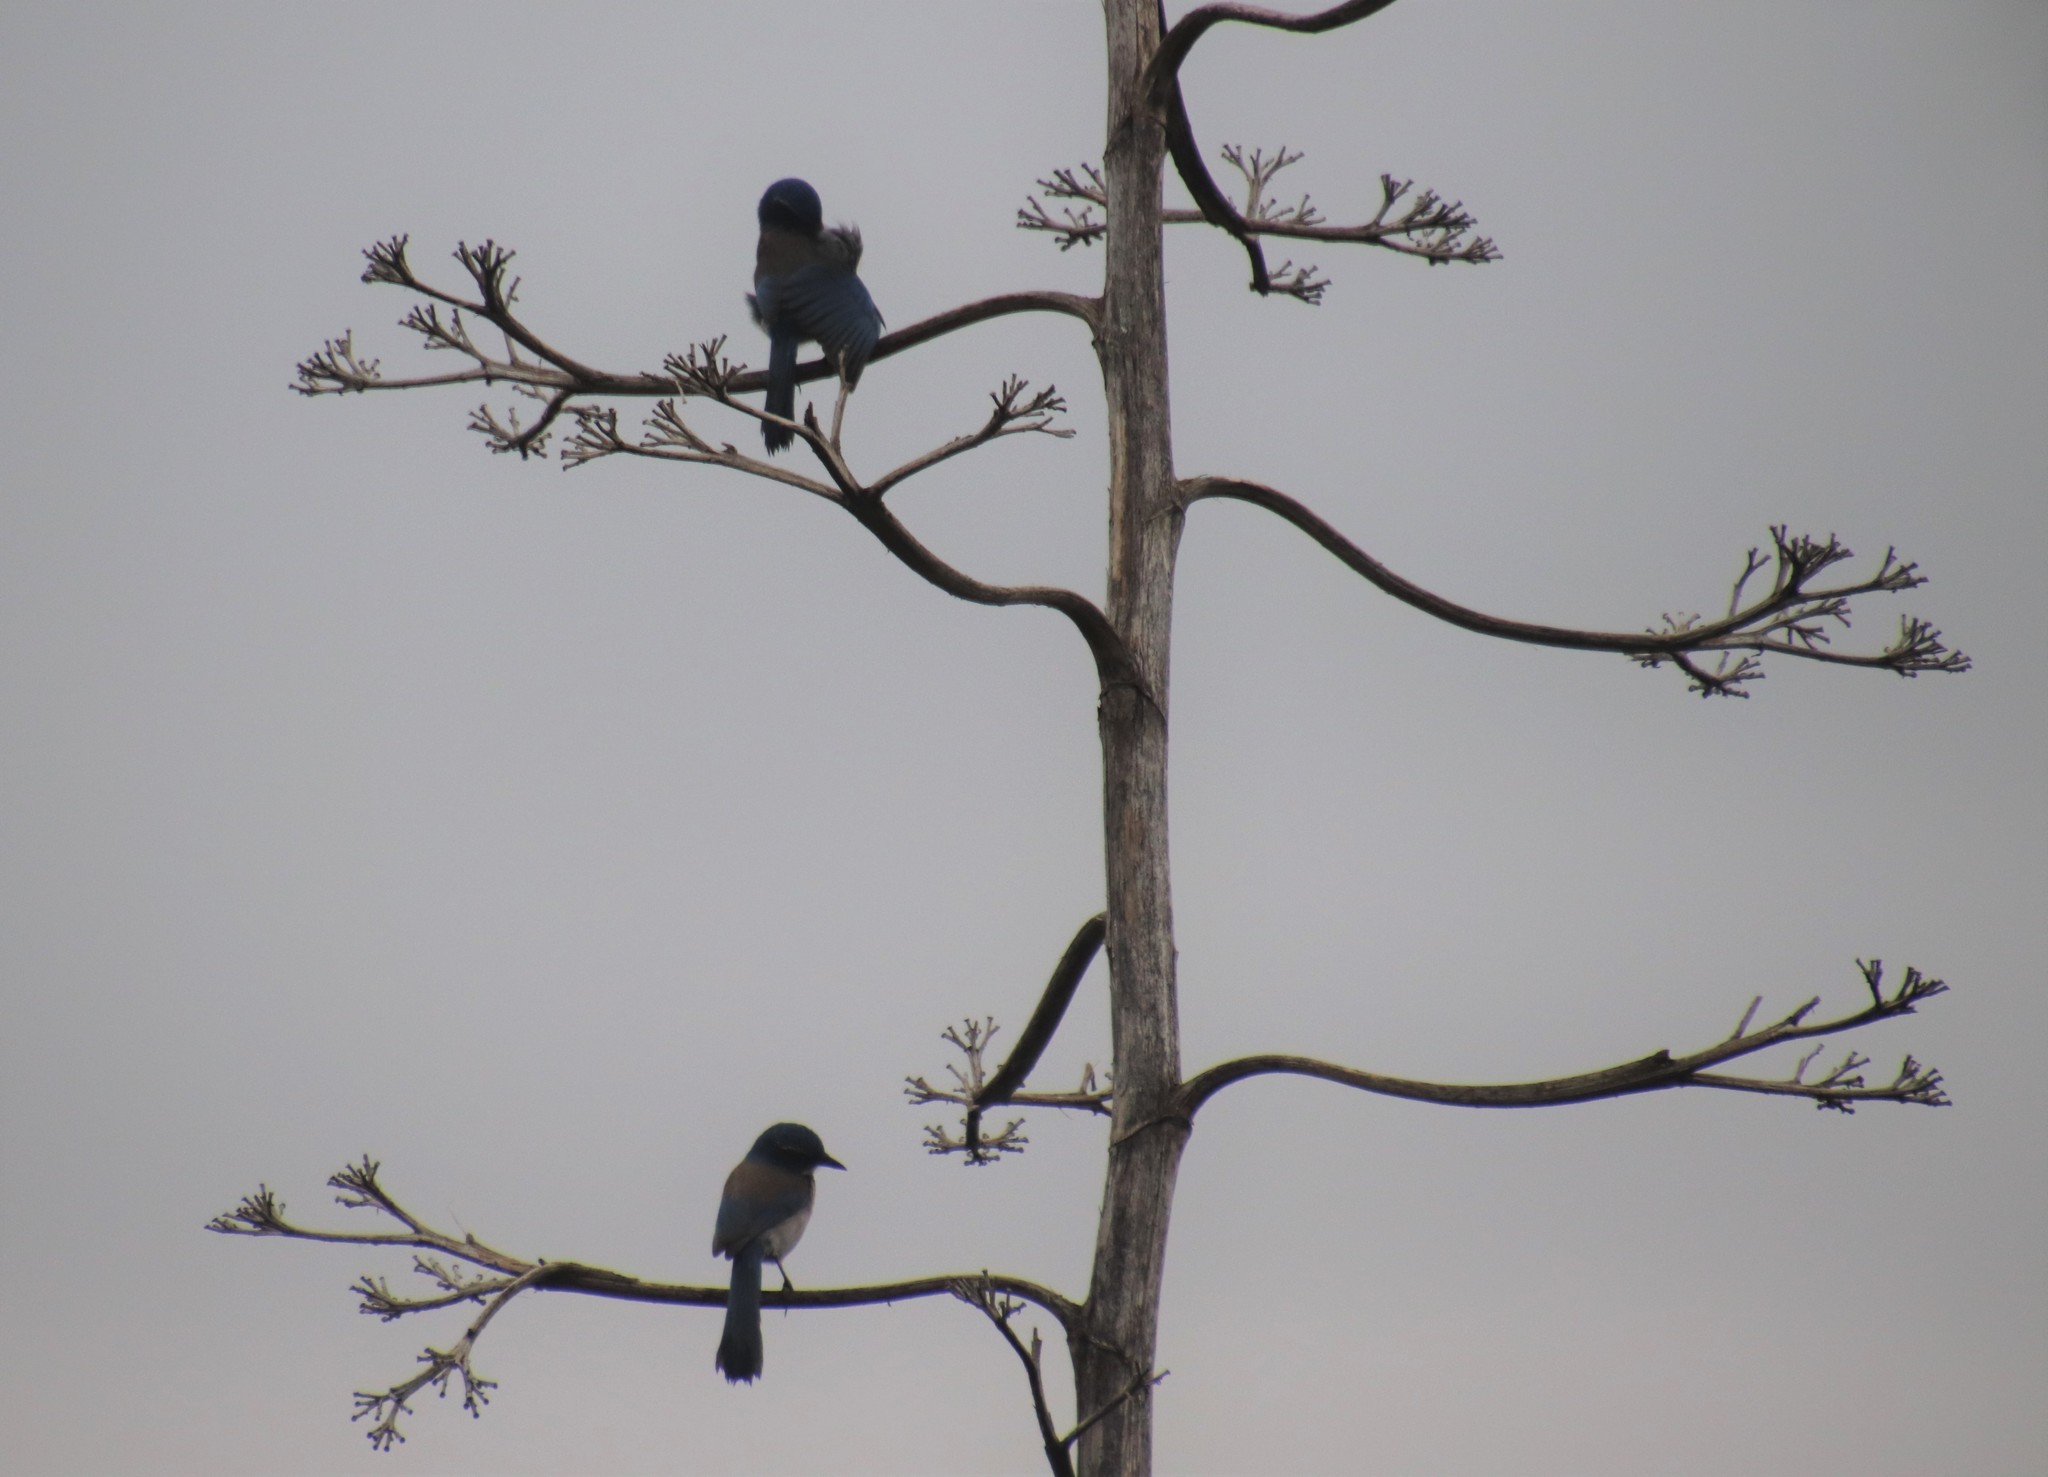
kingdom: Animalia
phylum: Chordata
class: Aves
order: Passeriformes
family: Corvidae
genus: Aphelocoma
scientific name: Aphelocoma californica
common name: California scrub-jay
